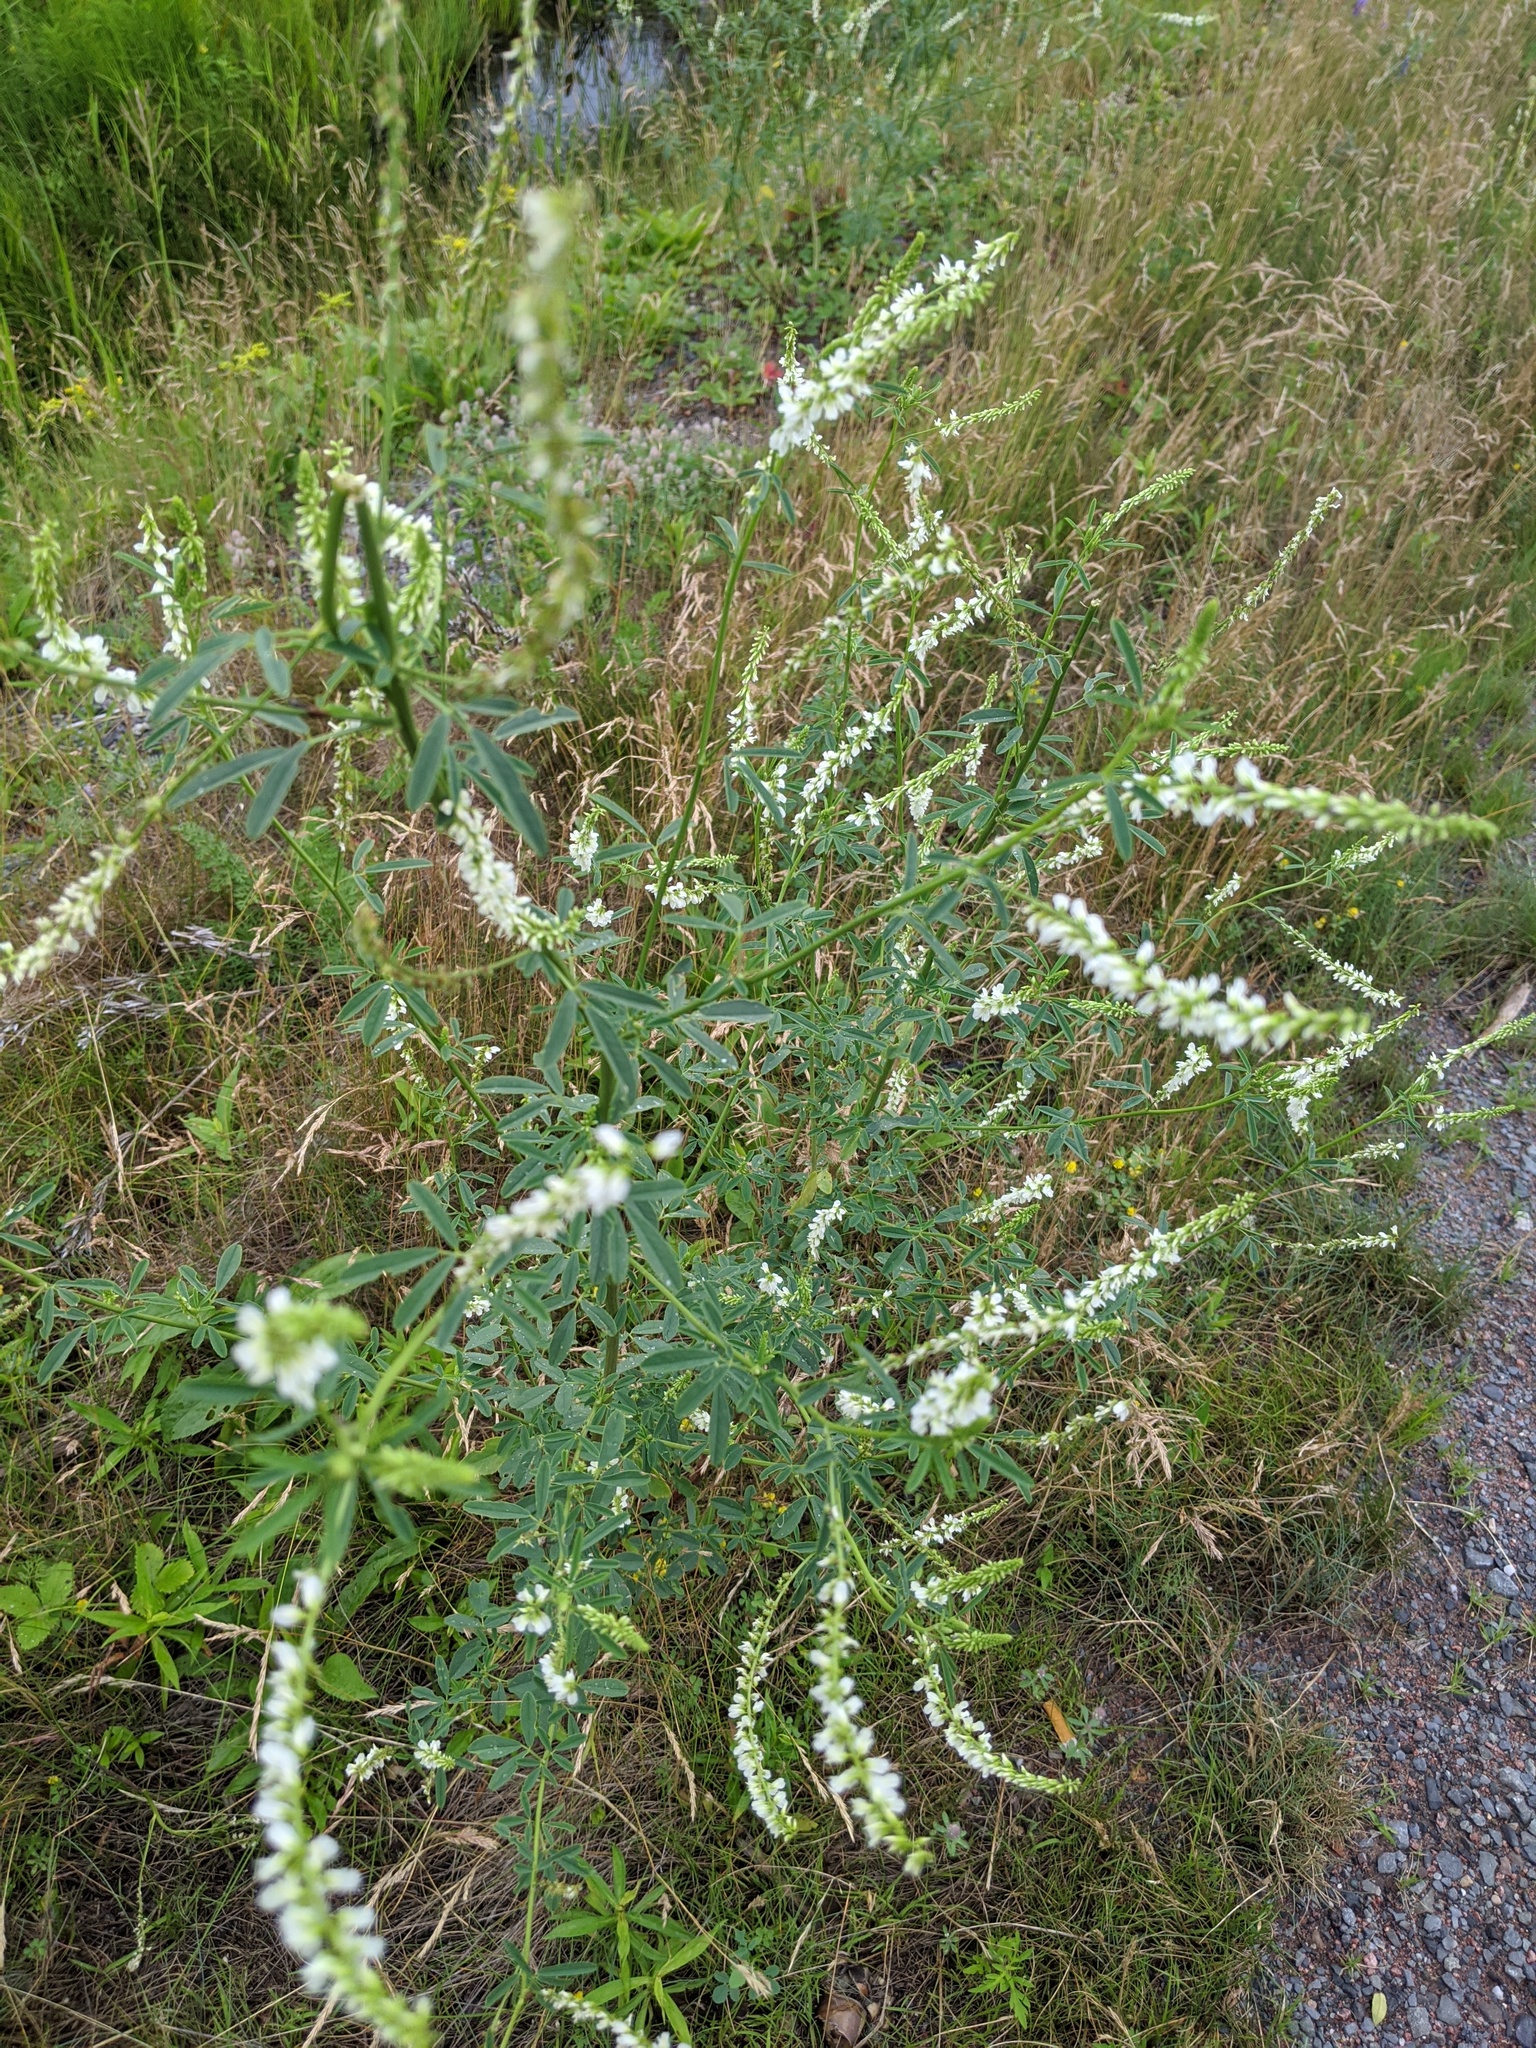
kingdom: Plantae
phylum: Tracheophyta
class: Magnoliopsida
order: Fabales
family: Fabaceae
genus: Melilotus
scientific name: Melilotus albus
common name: White melilot
